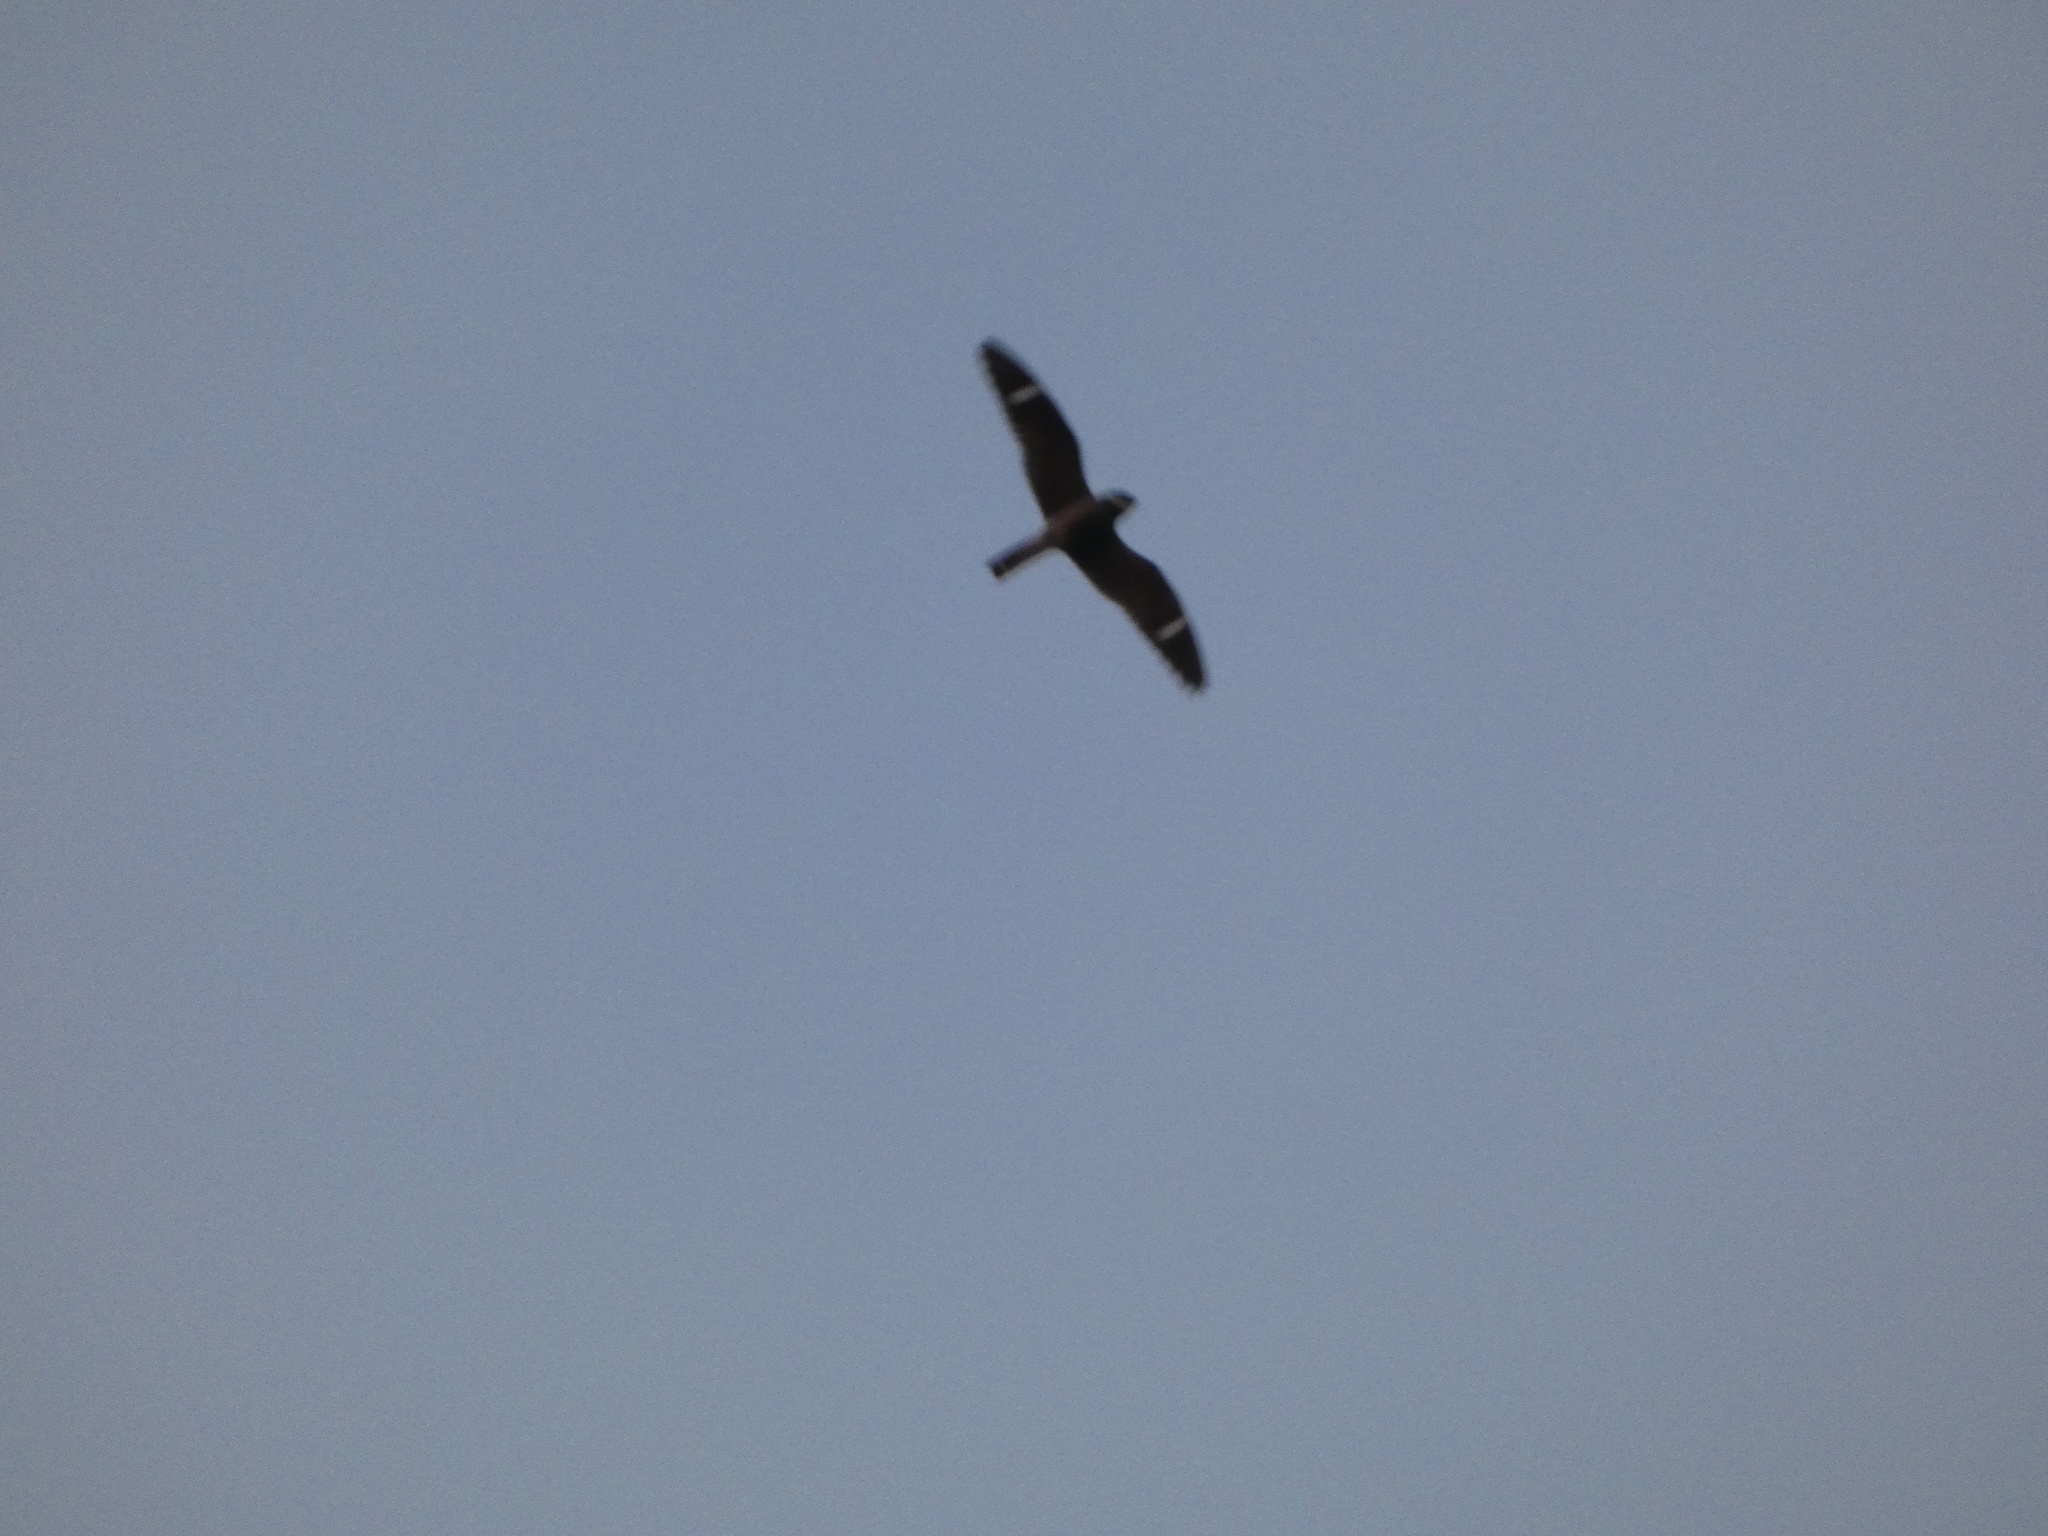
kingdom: Animalia
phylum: Chordata
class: Aves
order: Caprimulgiformes
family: Caprimulgidae
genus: Chordeiles
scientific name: Chordeiles minor
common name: Common nighthawk
